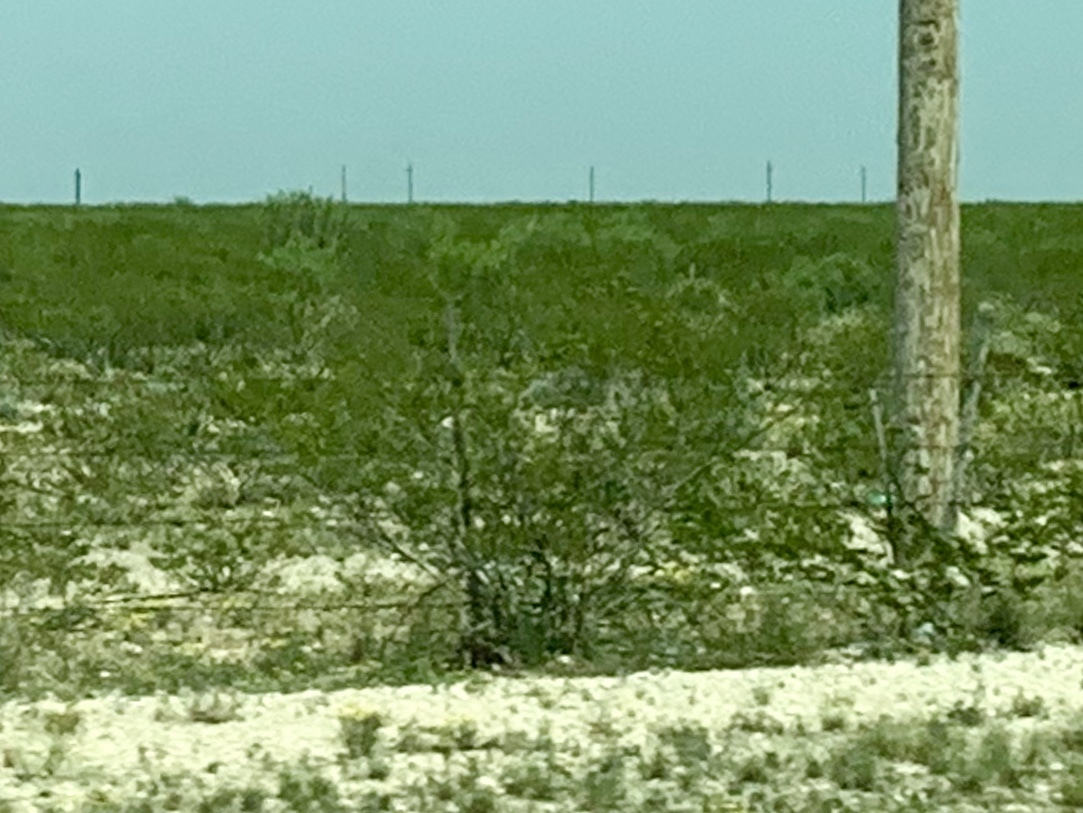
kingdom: Plantae
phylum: Tracheophyta
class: Magnoliopsida
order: Zygophyllales
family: Zygophyllaceae
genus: Larrea
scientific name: Larrea tridentata
